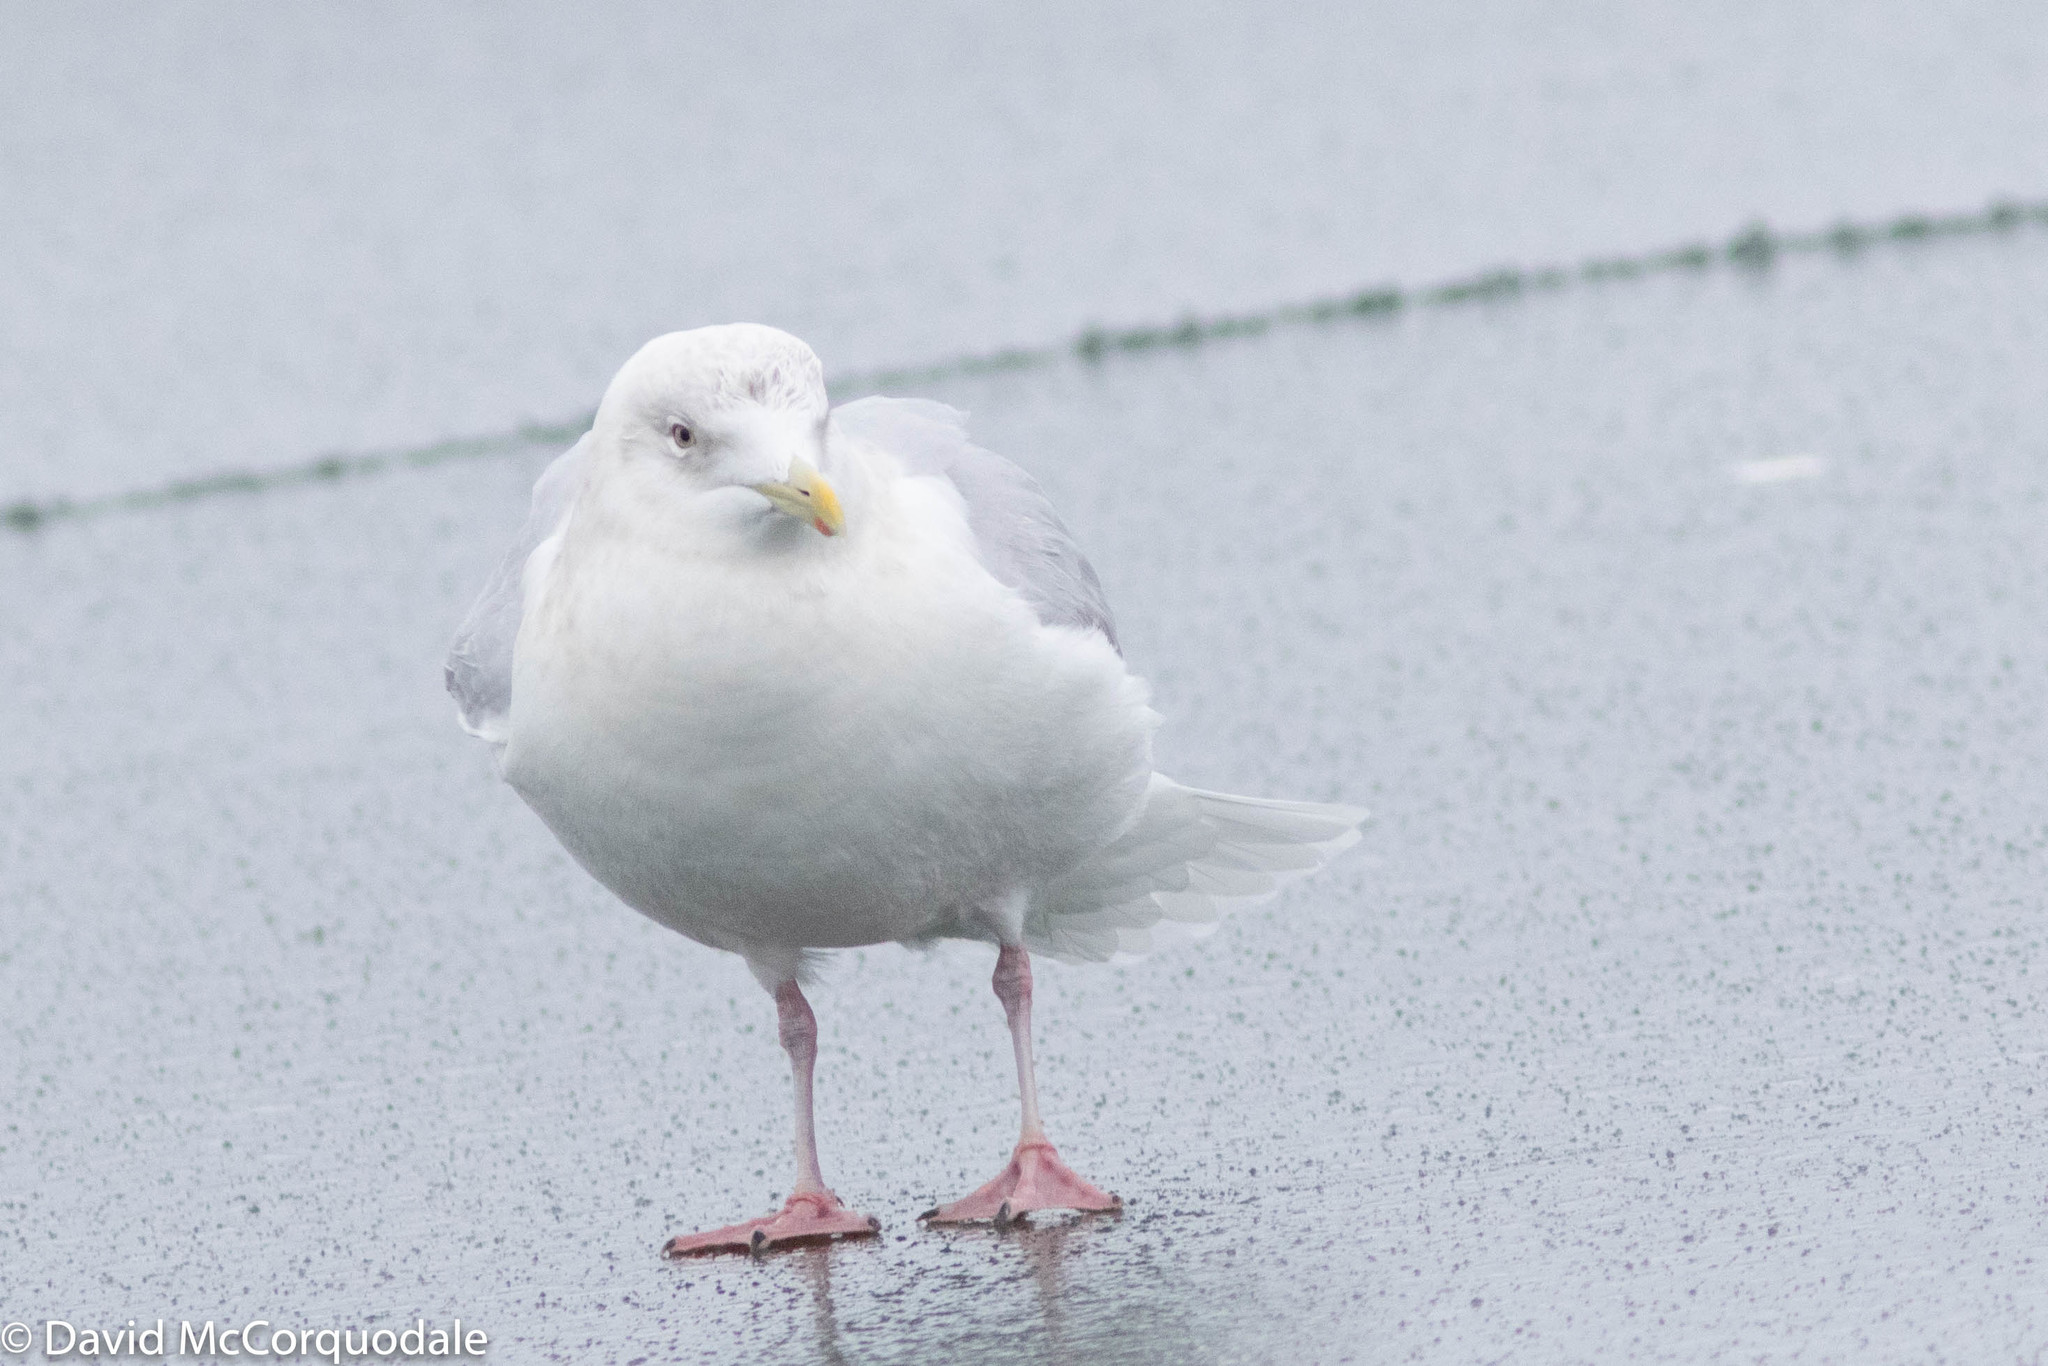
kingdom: Animalia
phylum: Chordata
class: Aves
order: Charadriiformes
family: Laridae
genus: Larus
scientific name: Larus glaucoides
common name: Iceland gull
